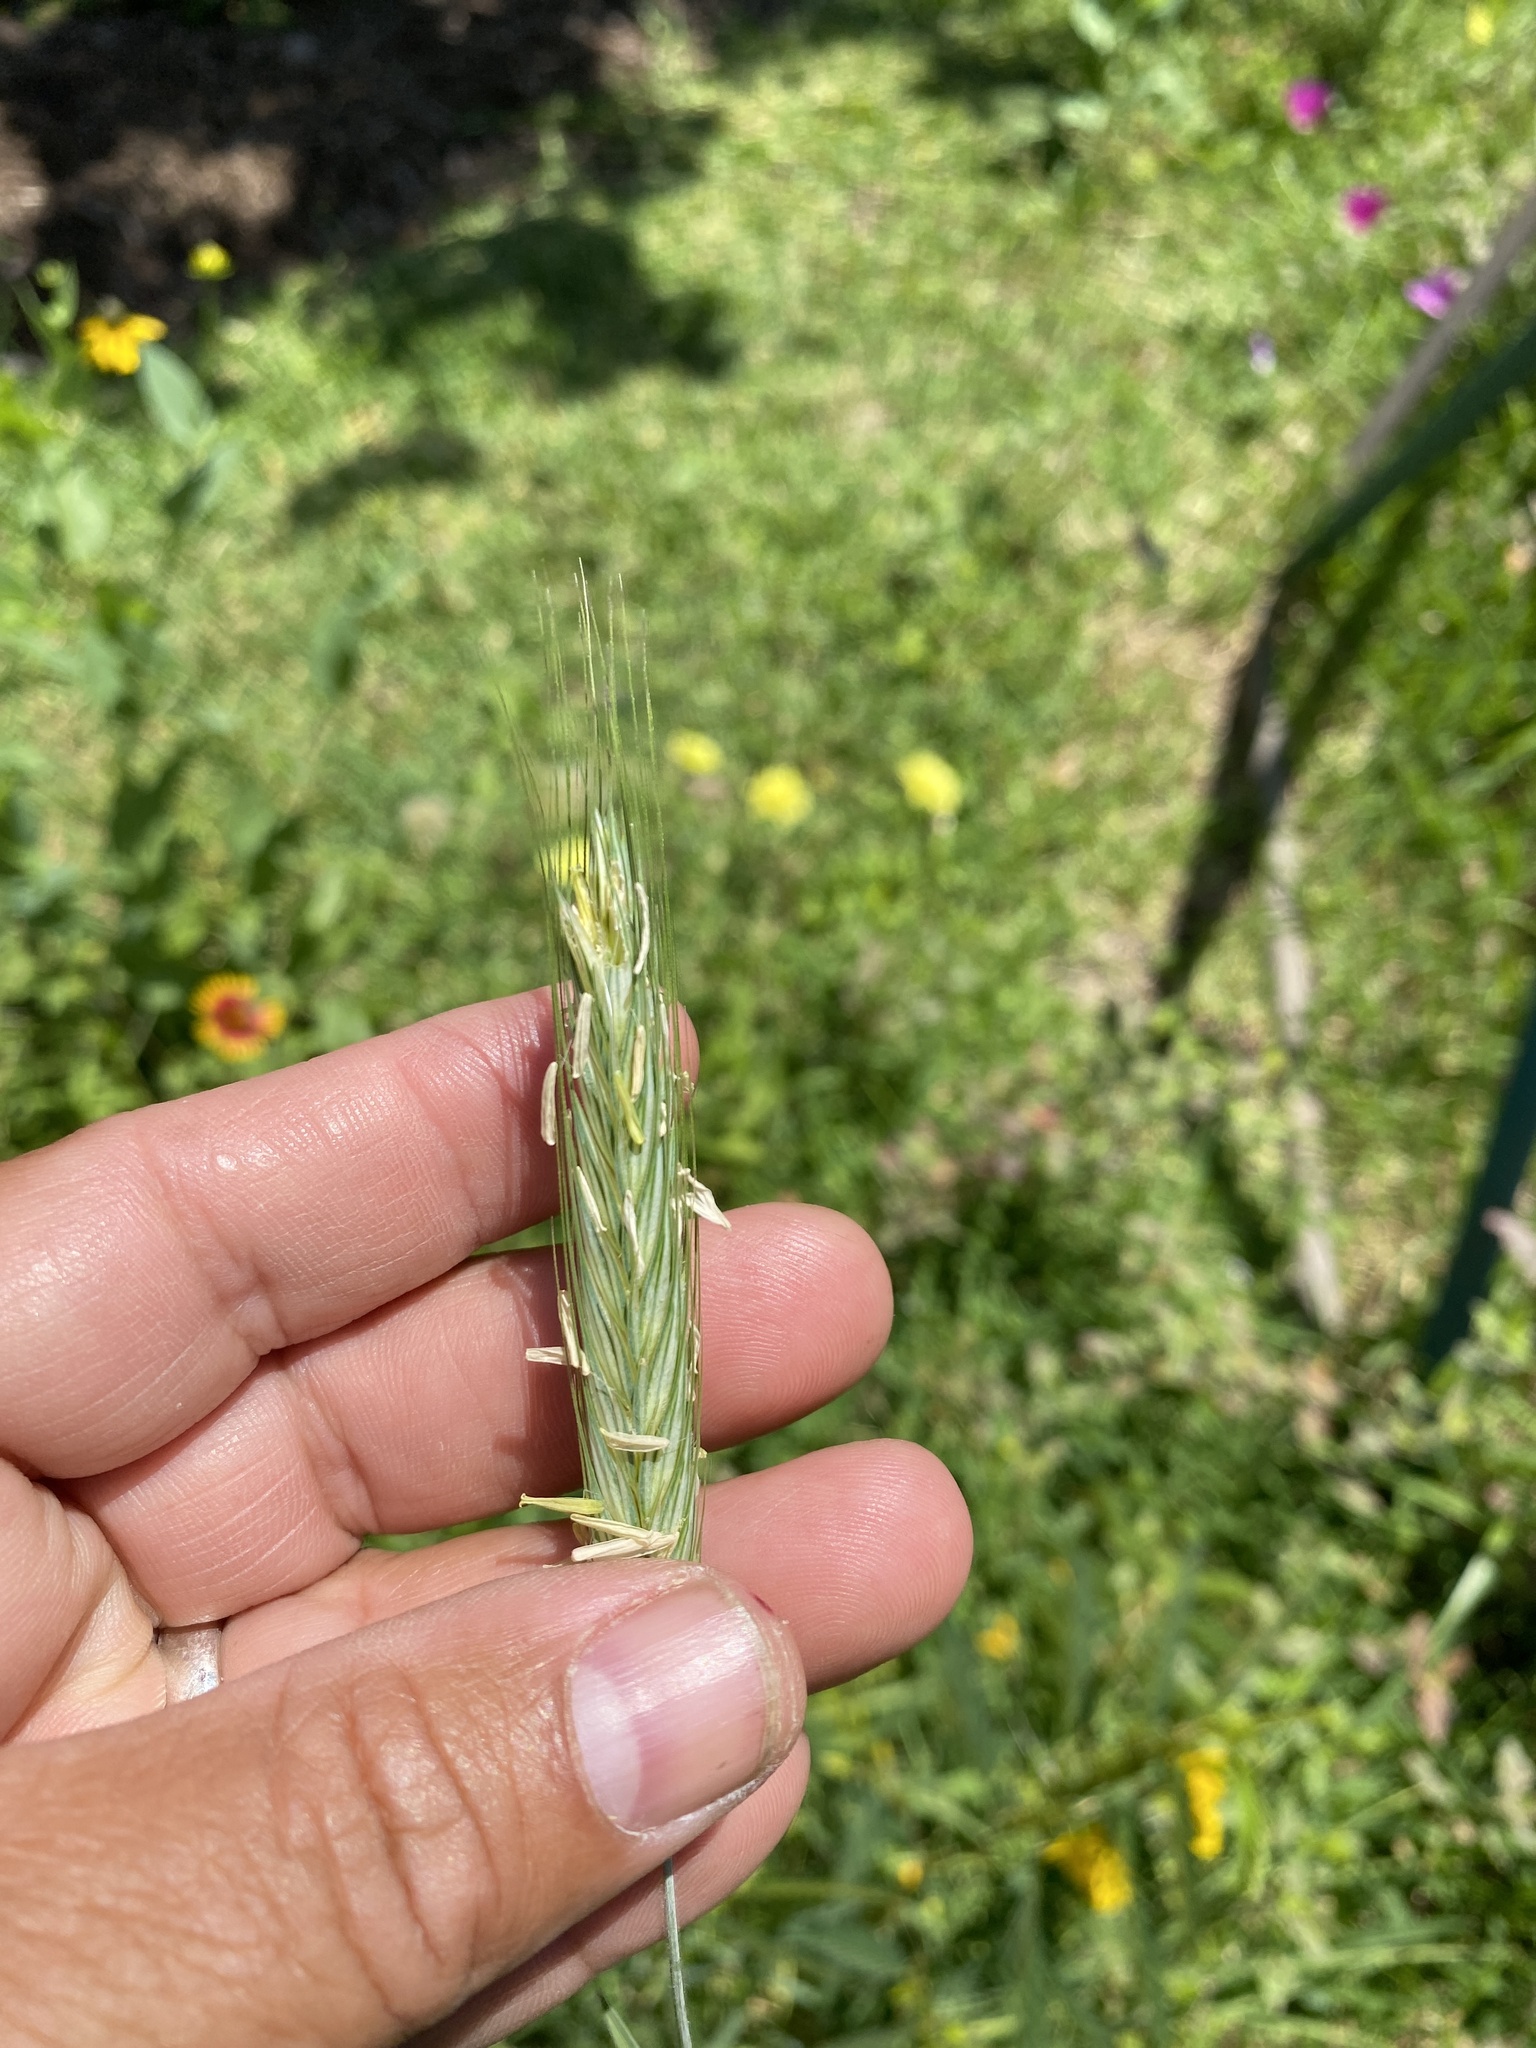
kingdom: Plantae
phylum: Tracheophyta
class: Liliopsida
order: Poales
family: Poaceae
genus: Secale
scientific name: Secale cereale
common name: Rye
